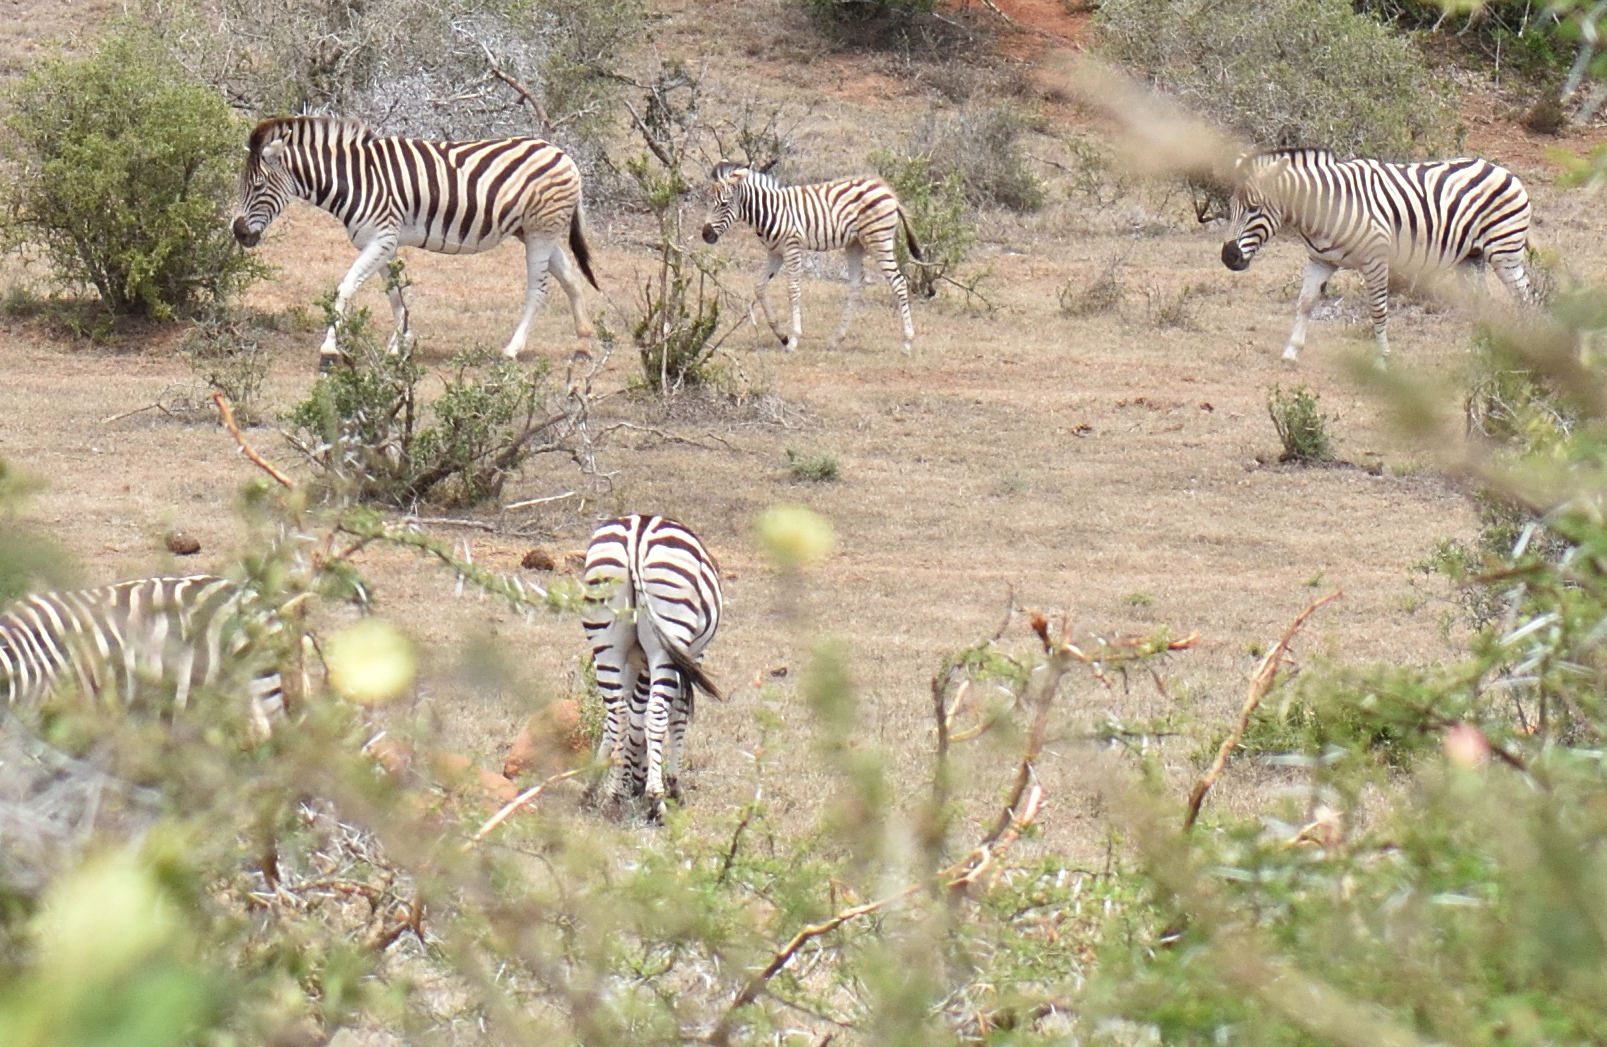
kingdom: Animalia
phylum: Chordata
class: Mammalia
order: Perissodactyla
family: Equidae
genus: Equus
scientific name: Equus quagga
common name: Plains zebra
